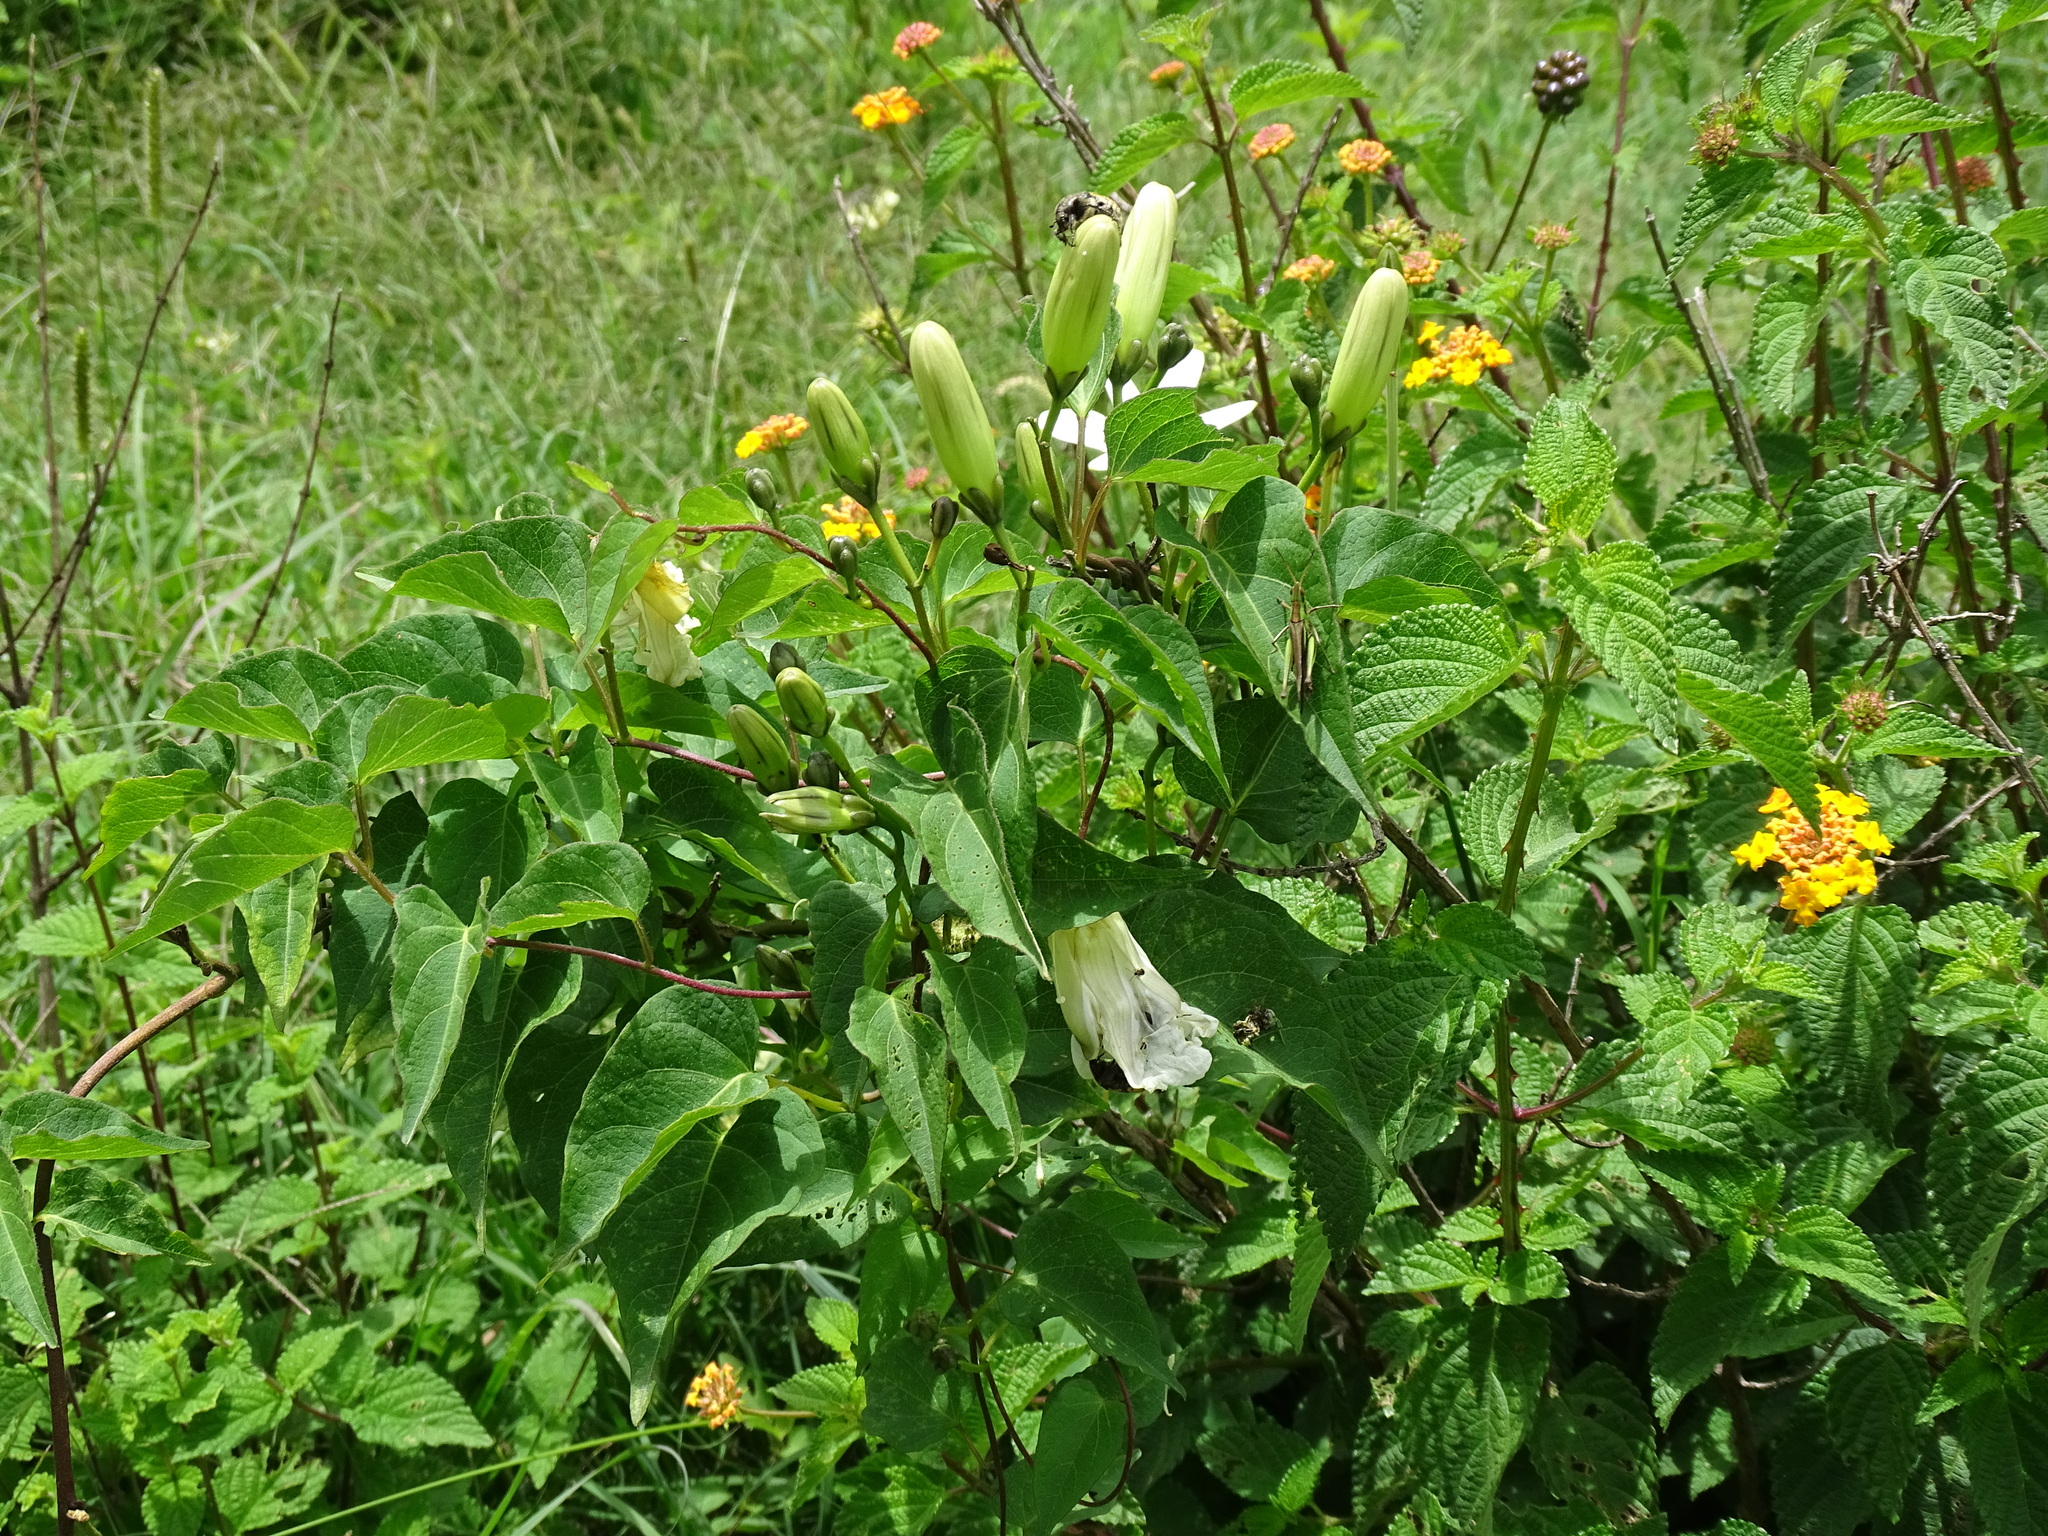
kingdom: Plantae
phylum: Tracheophyta
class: Magnoliopsida
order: Solanales
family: Convolvulaceae
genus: Ipomoea
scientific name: Ipomoea proxima
